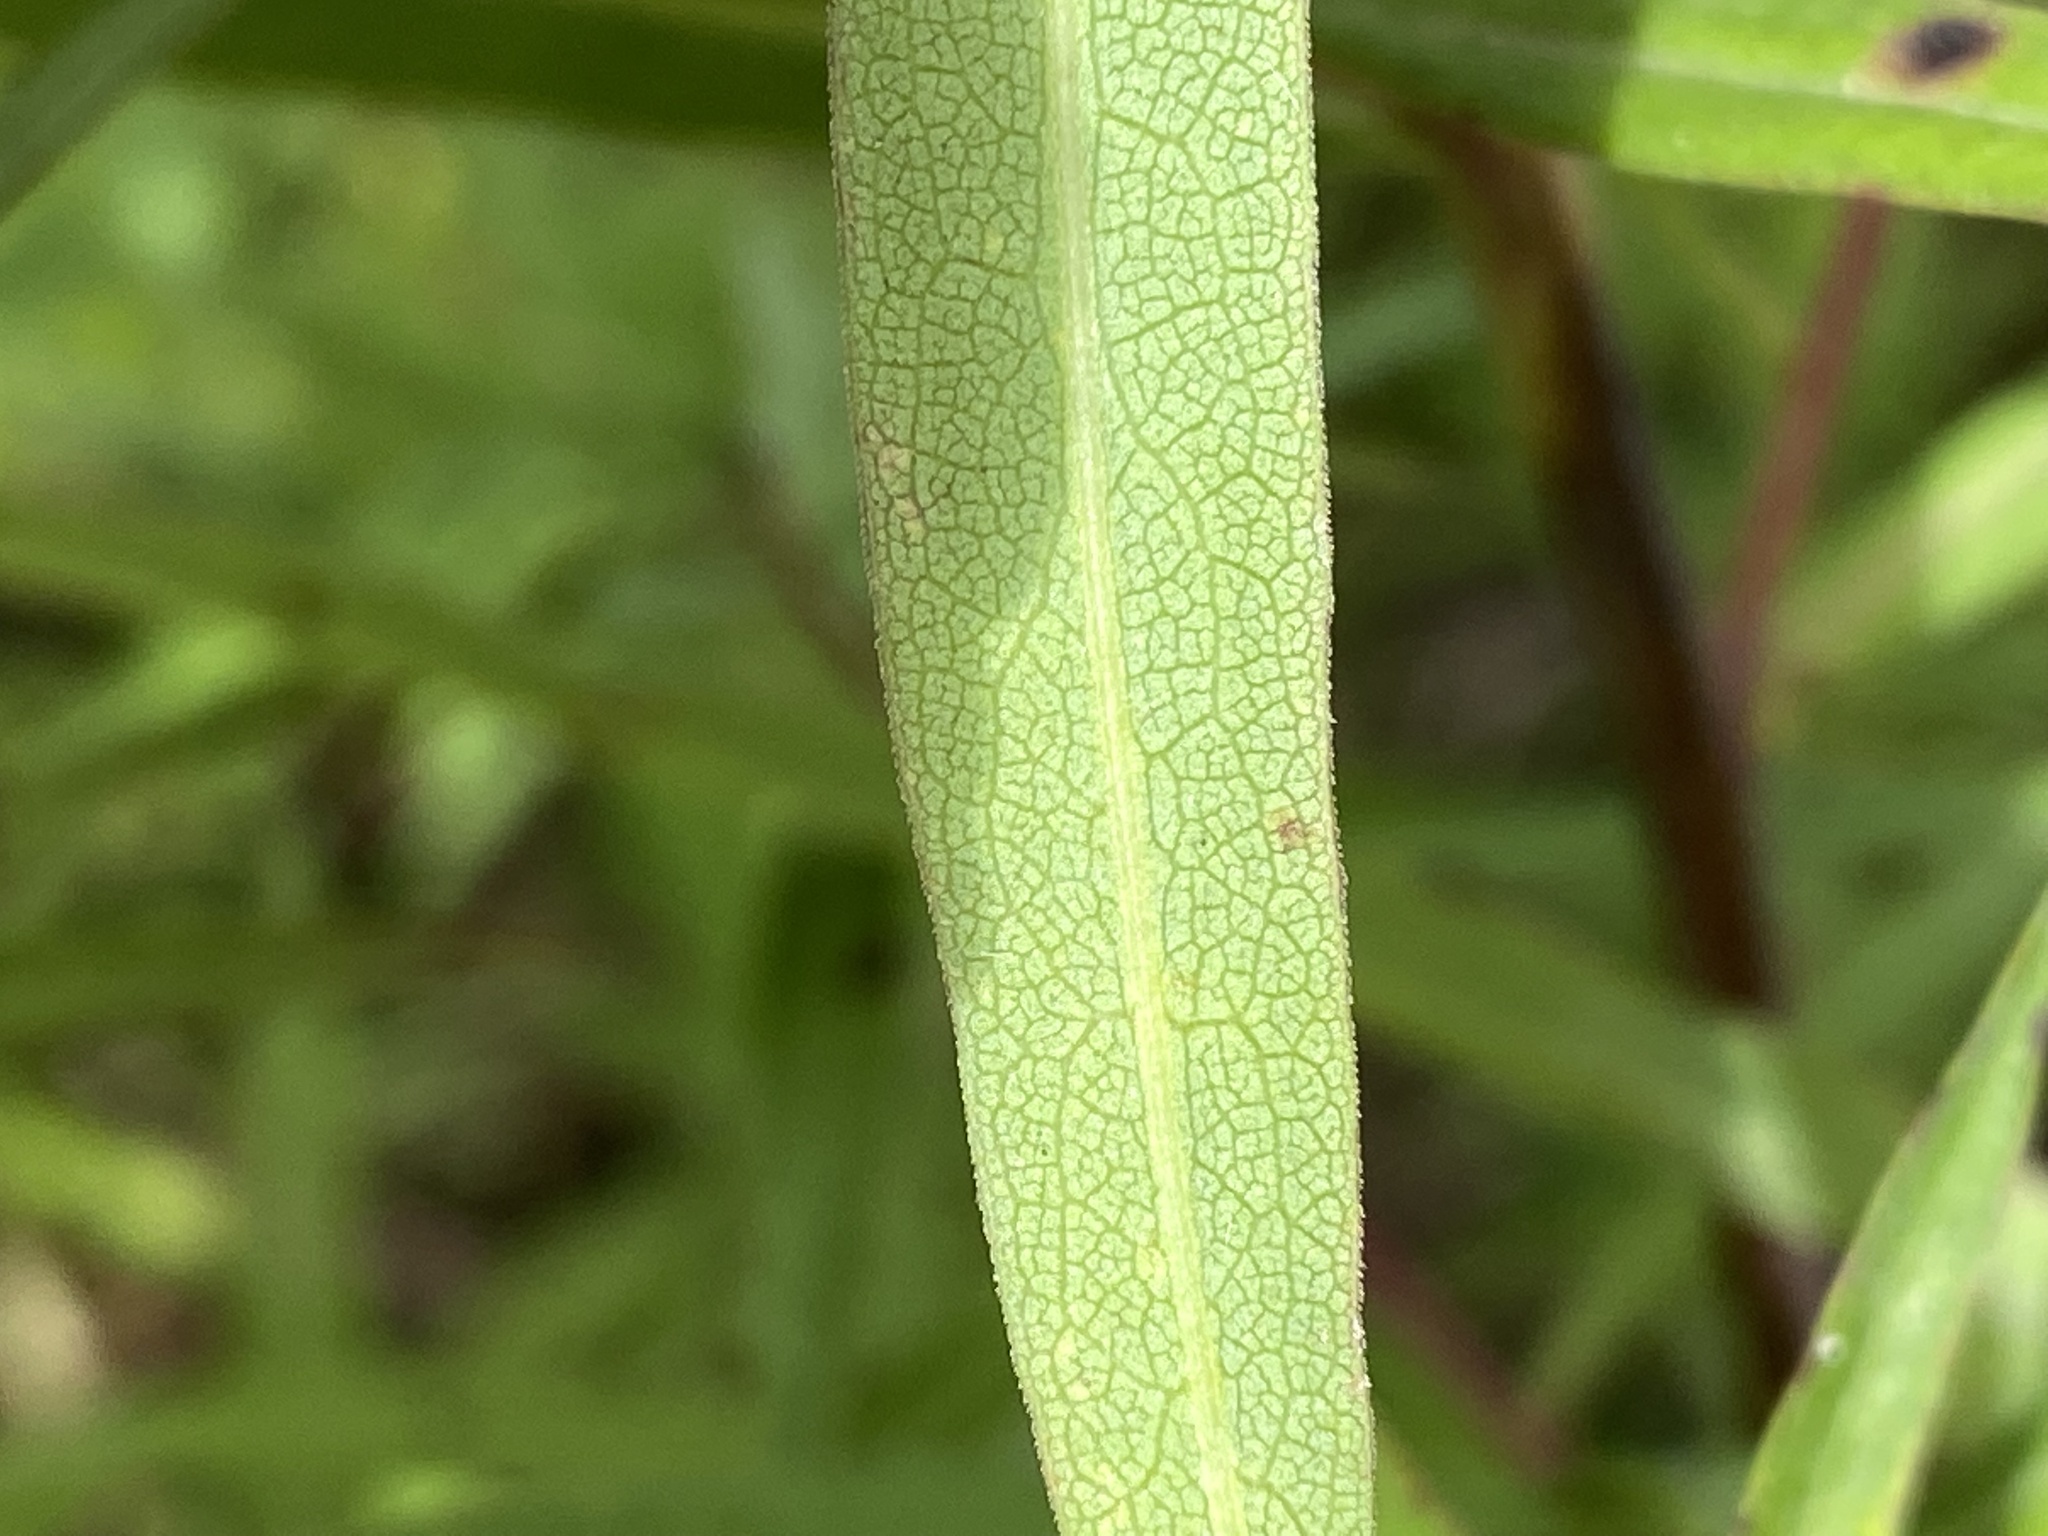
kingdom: Plantae
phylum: Tracheophyta
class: Magnoliopsida
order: Asterales
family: Asteraceae
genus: Symphyotrichum
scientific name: Symphyotrichum praealtum
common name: Willow aster
